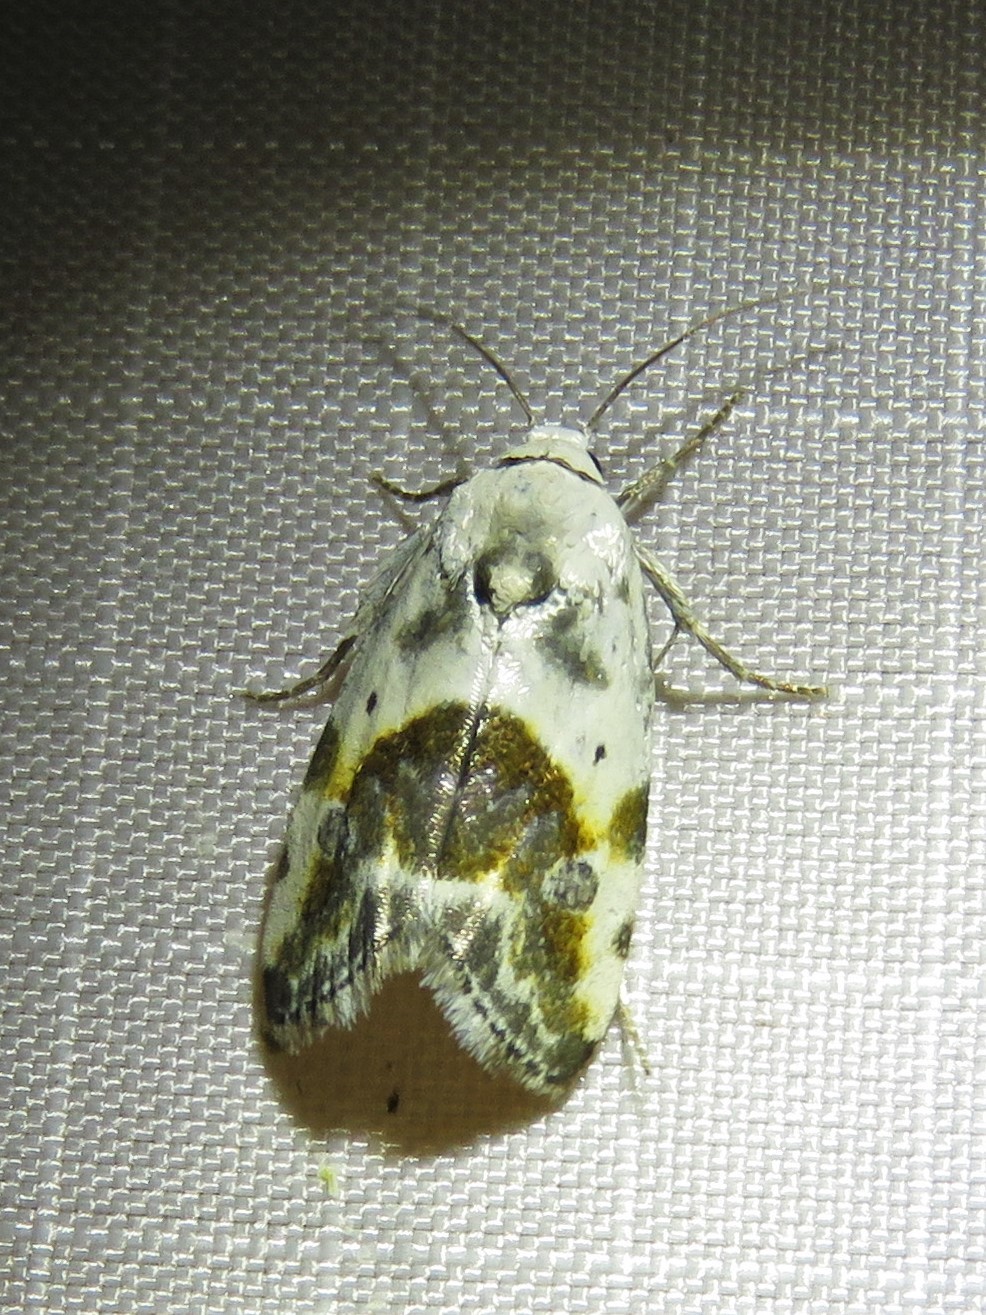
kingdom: Animalia
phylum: Arthropoda
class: Insecta
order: Lepidoptera
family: Noctuidae
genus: Acontia
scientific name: Acontia candefacta
